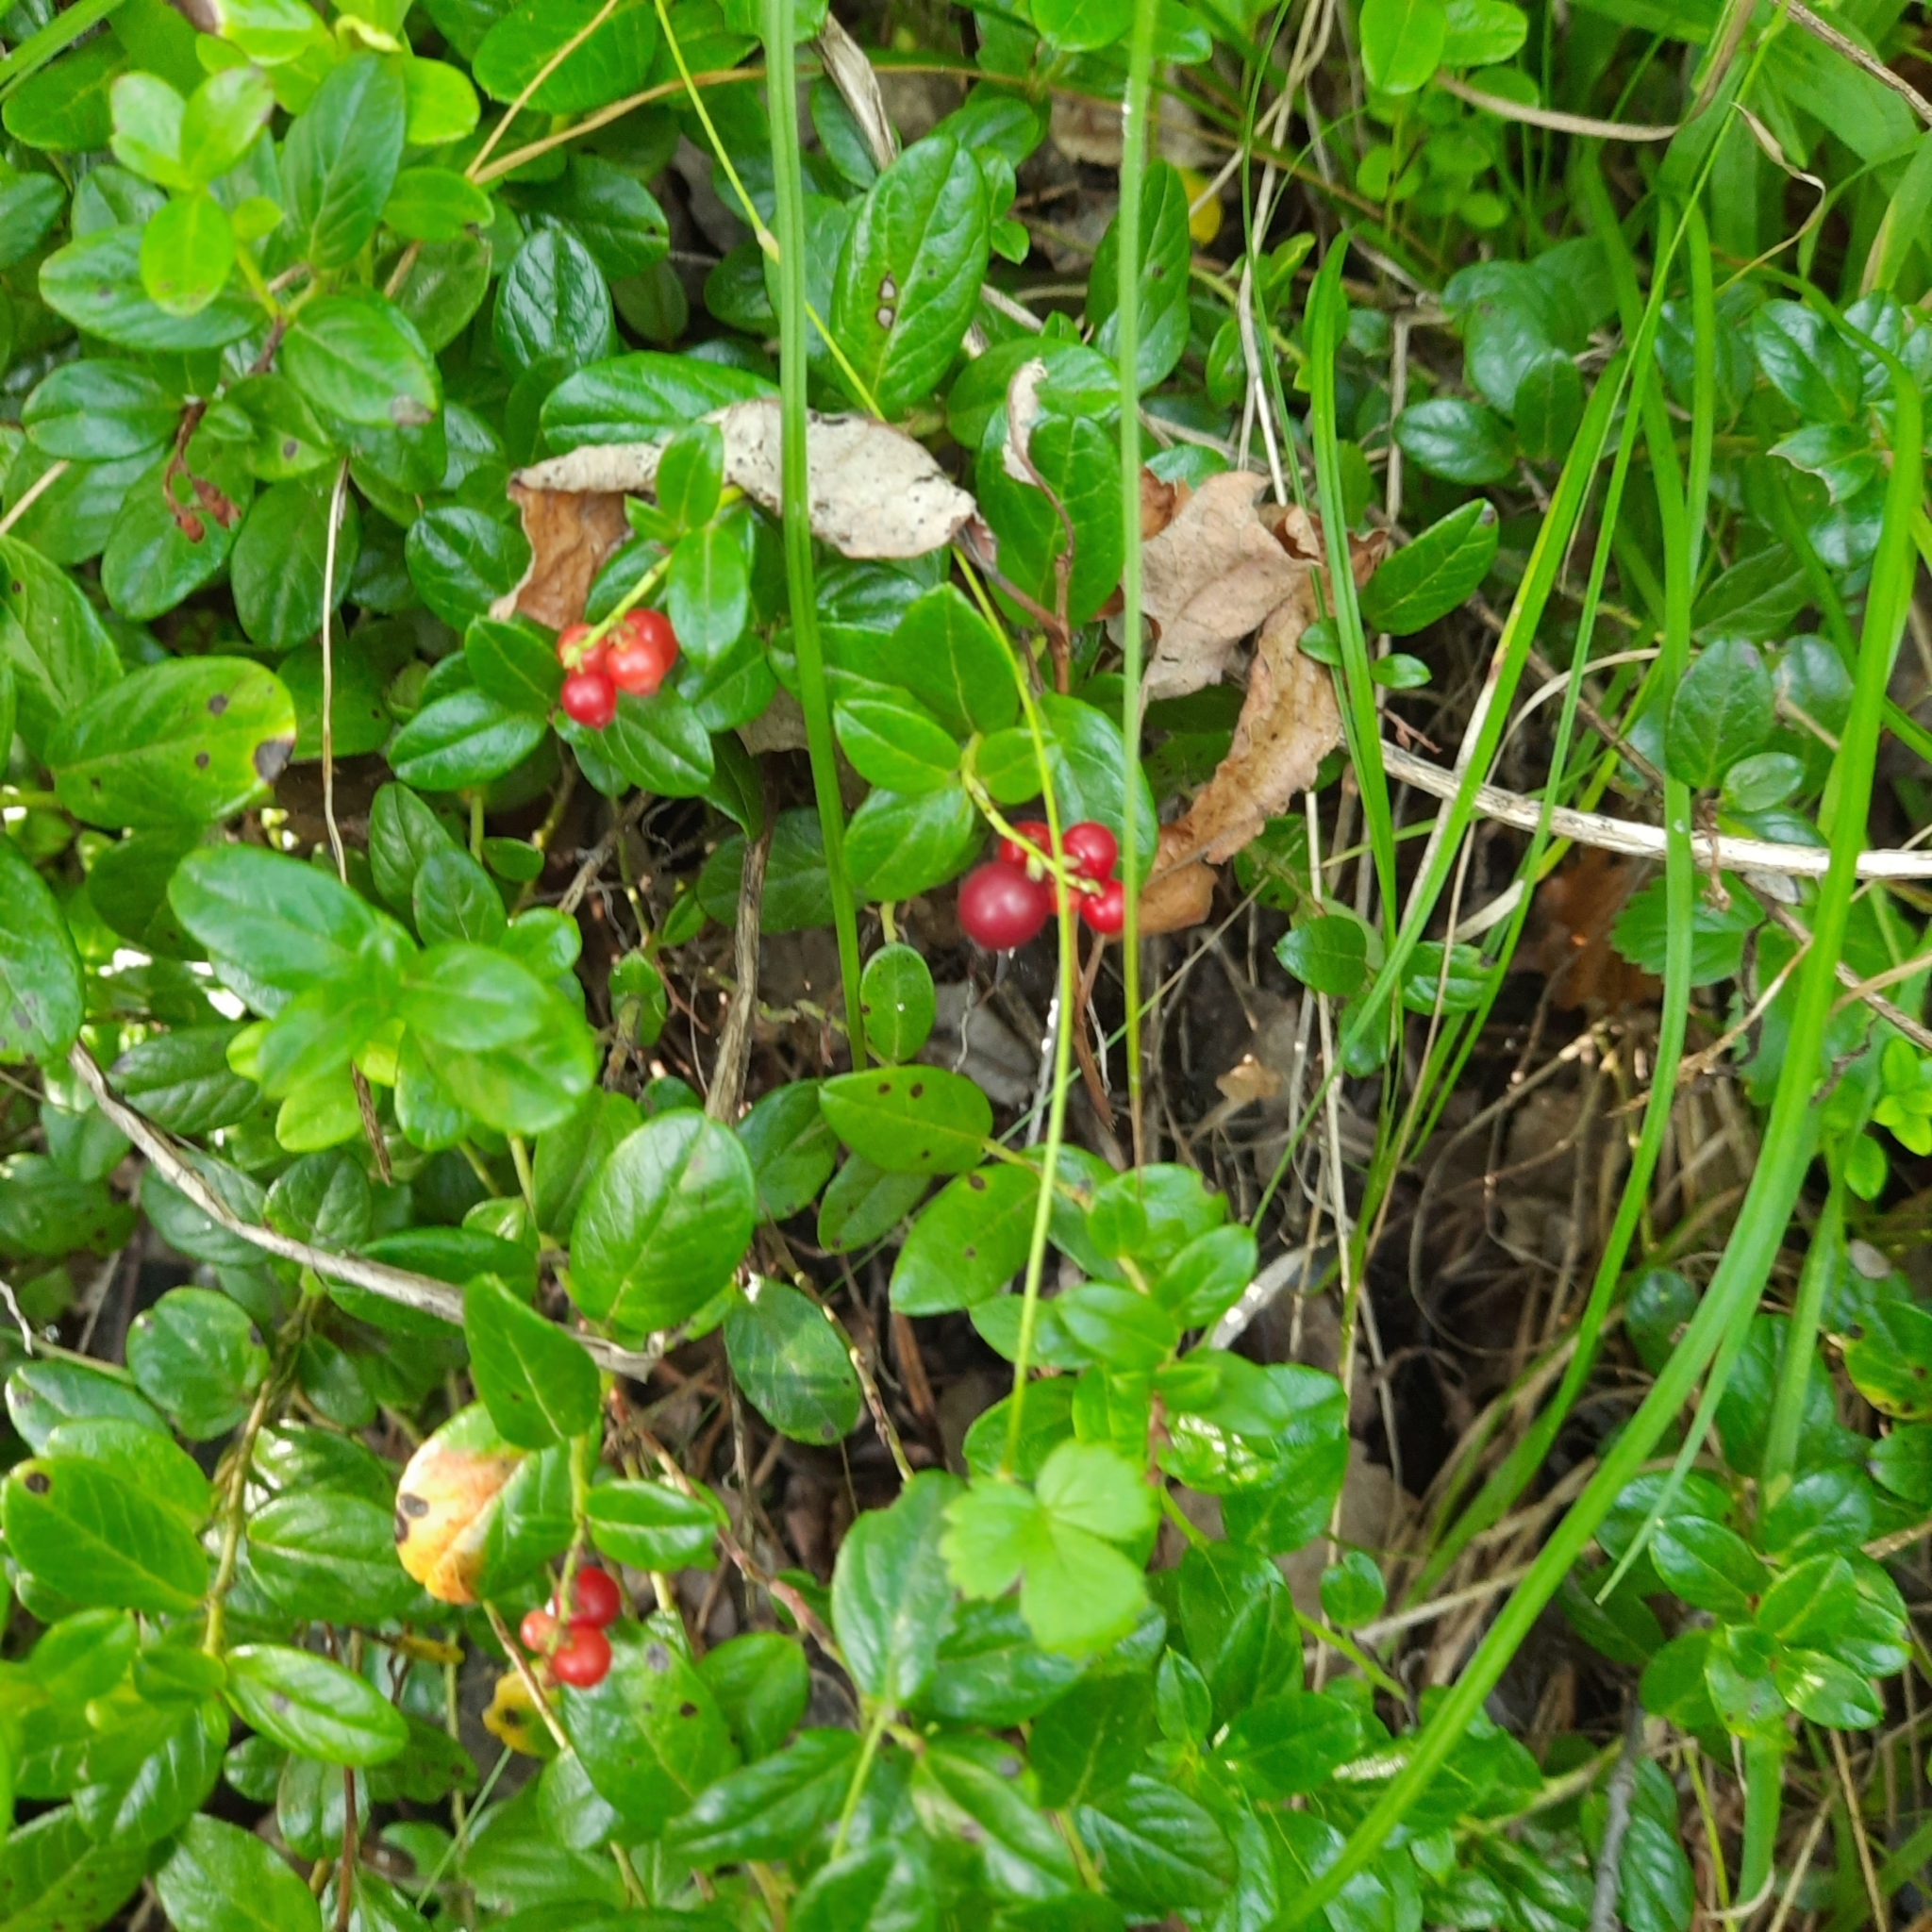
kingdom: Plantae
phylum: Tracheophyta
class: Magnoliopsida
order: Ericales
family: Ericaceae
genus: Vaccinium
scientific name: Vaccinium vitis-idaea
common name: Cowberry
